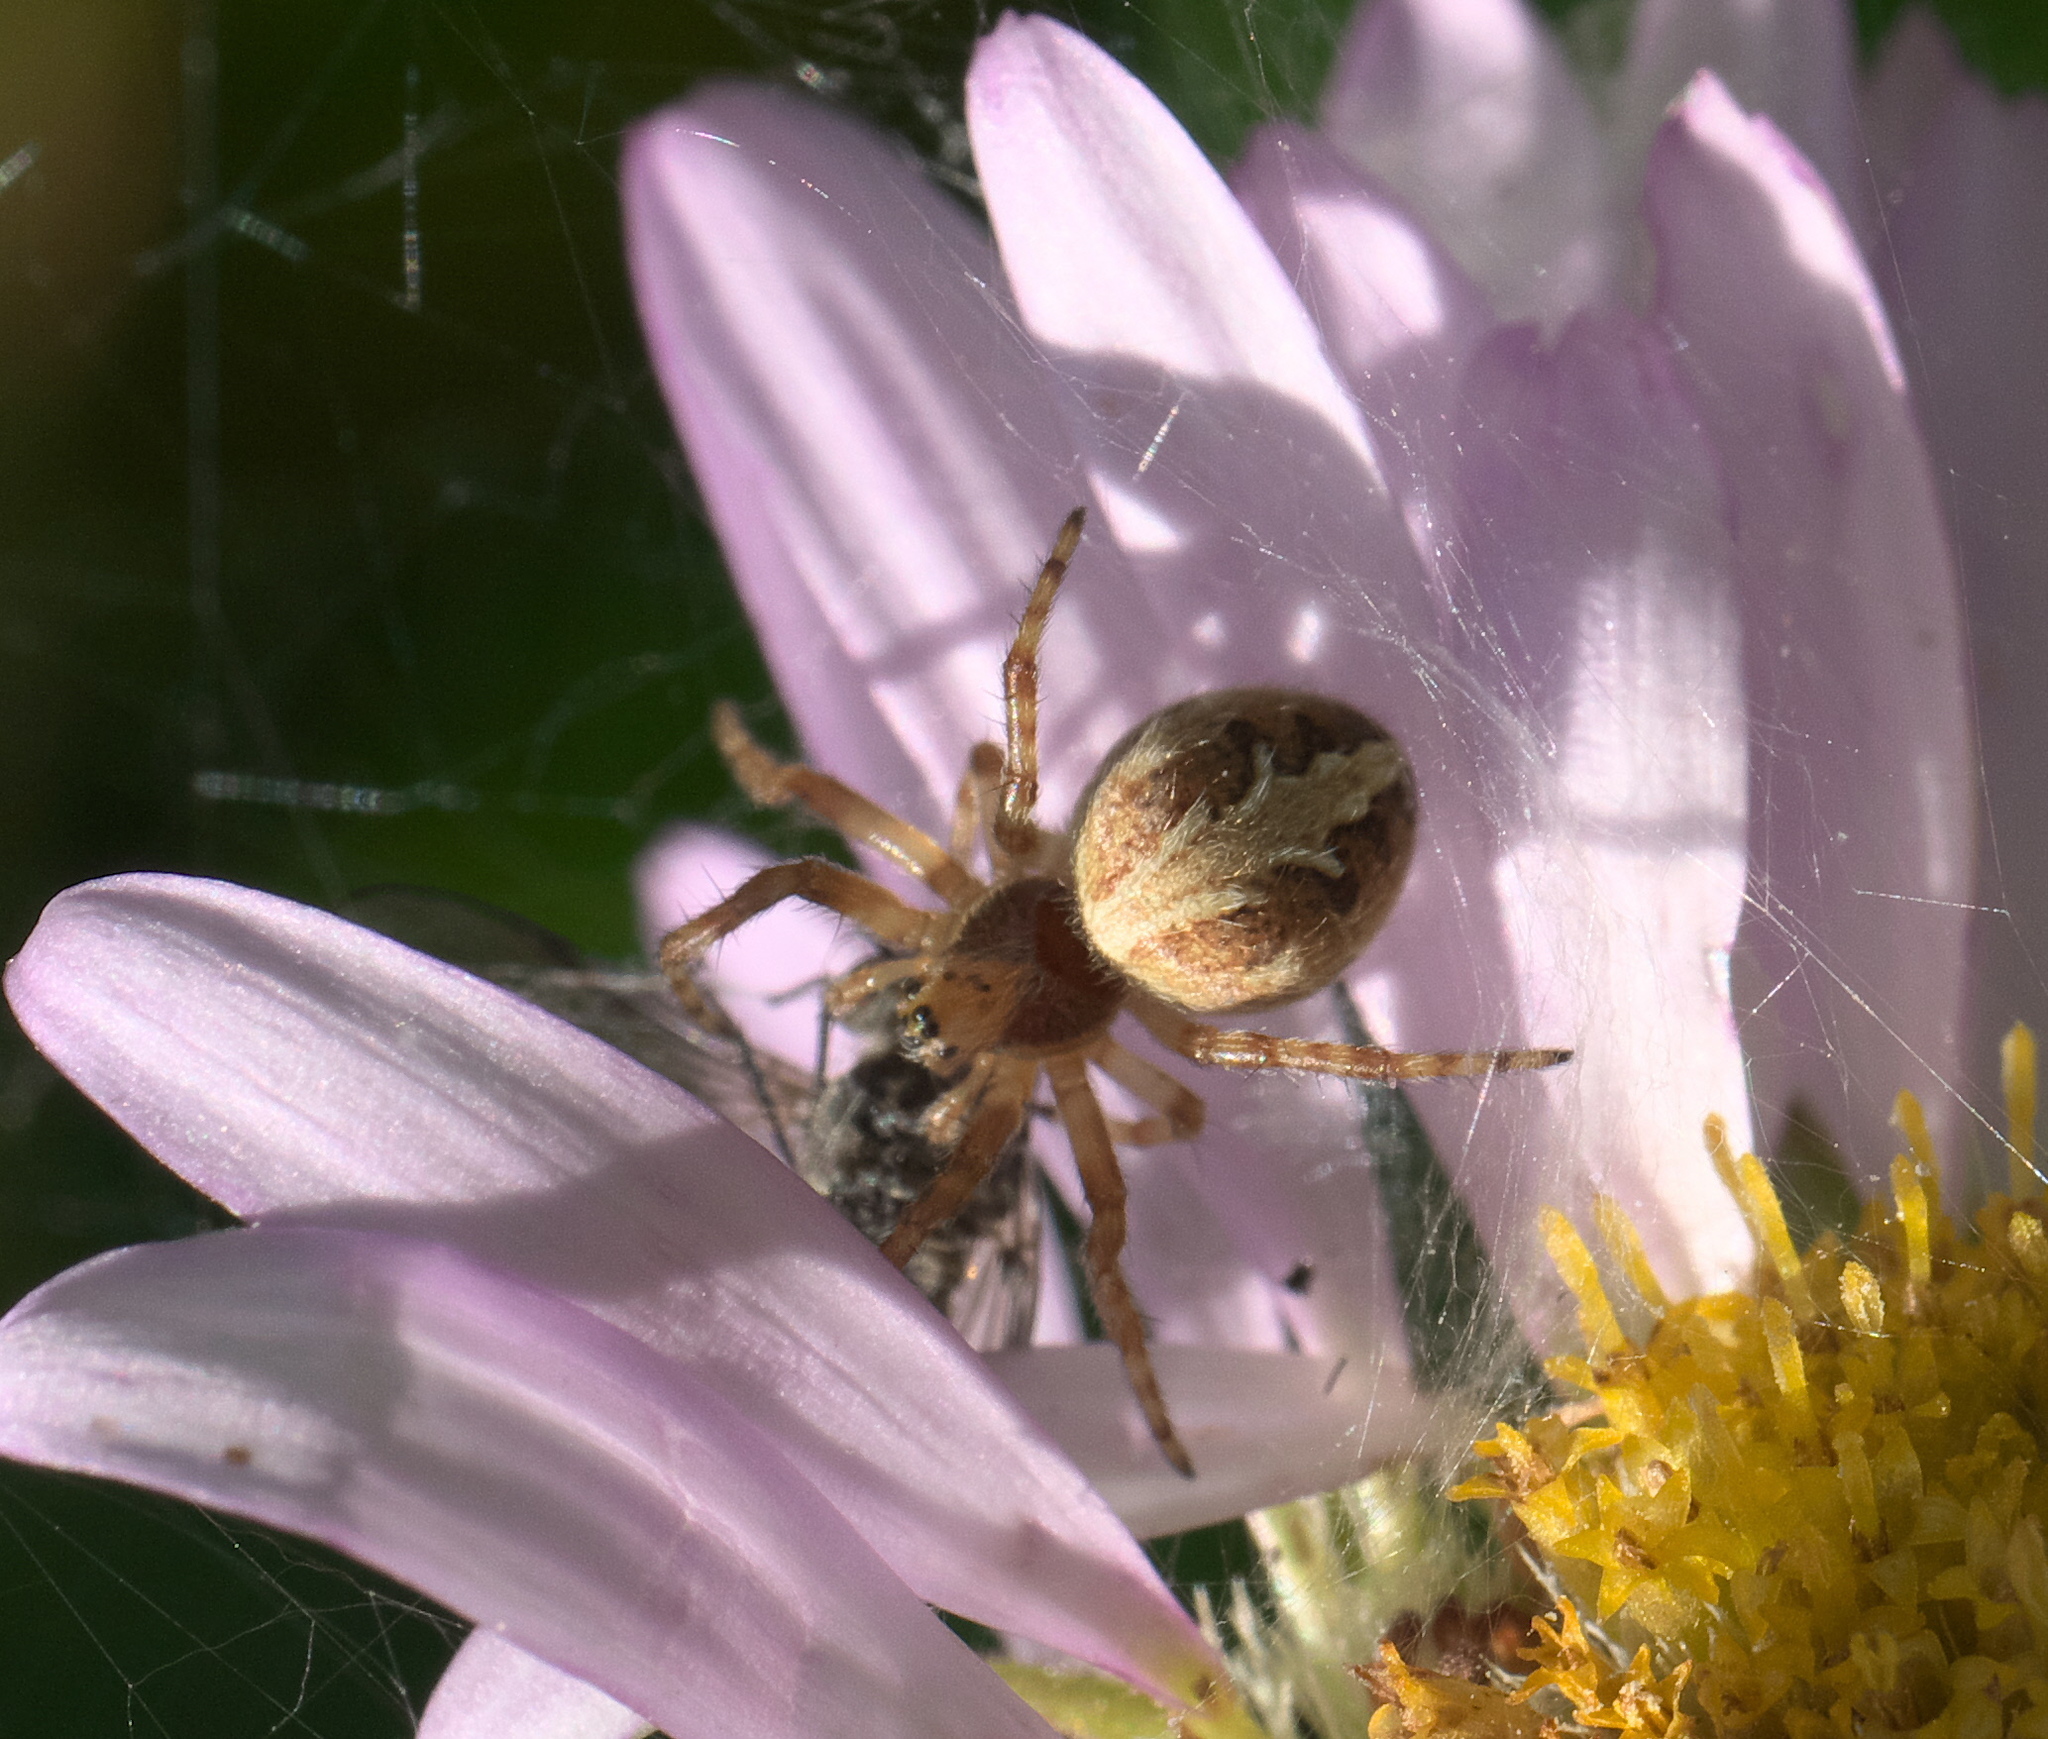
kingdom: Animalia
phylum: Arthropoda
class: Arachnida
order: Araneae
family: Araneidae
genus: Aculepeira
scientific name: Aculepeira packardi
